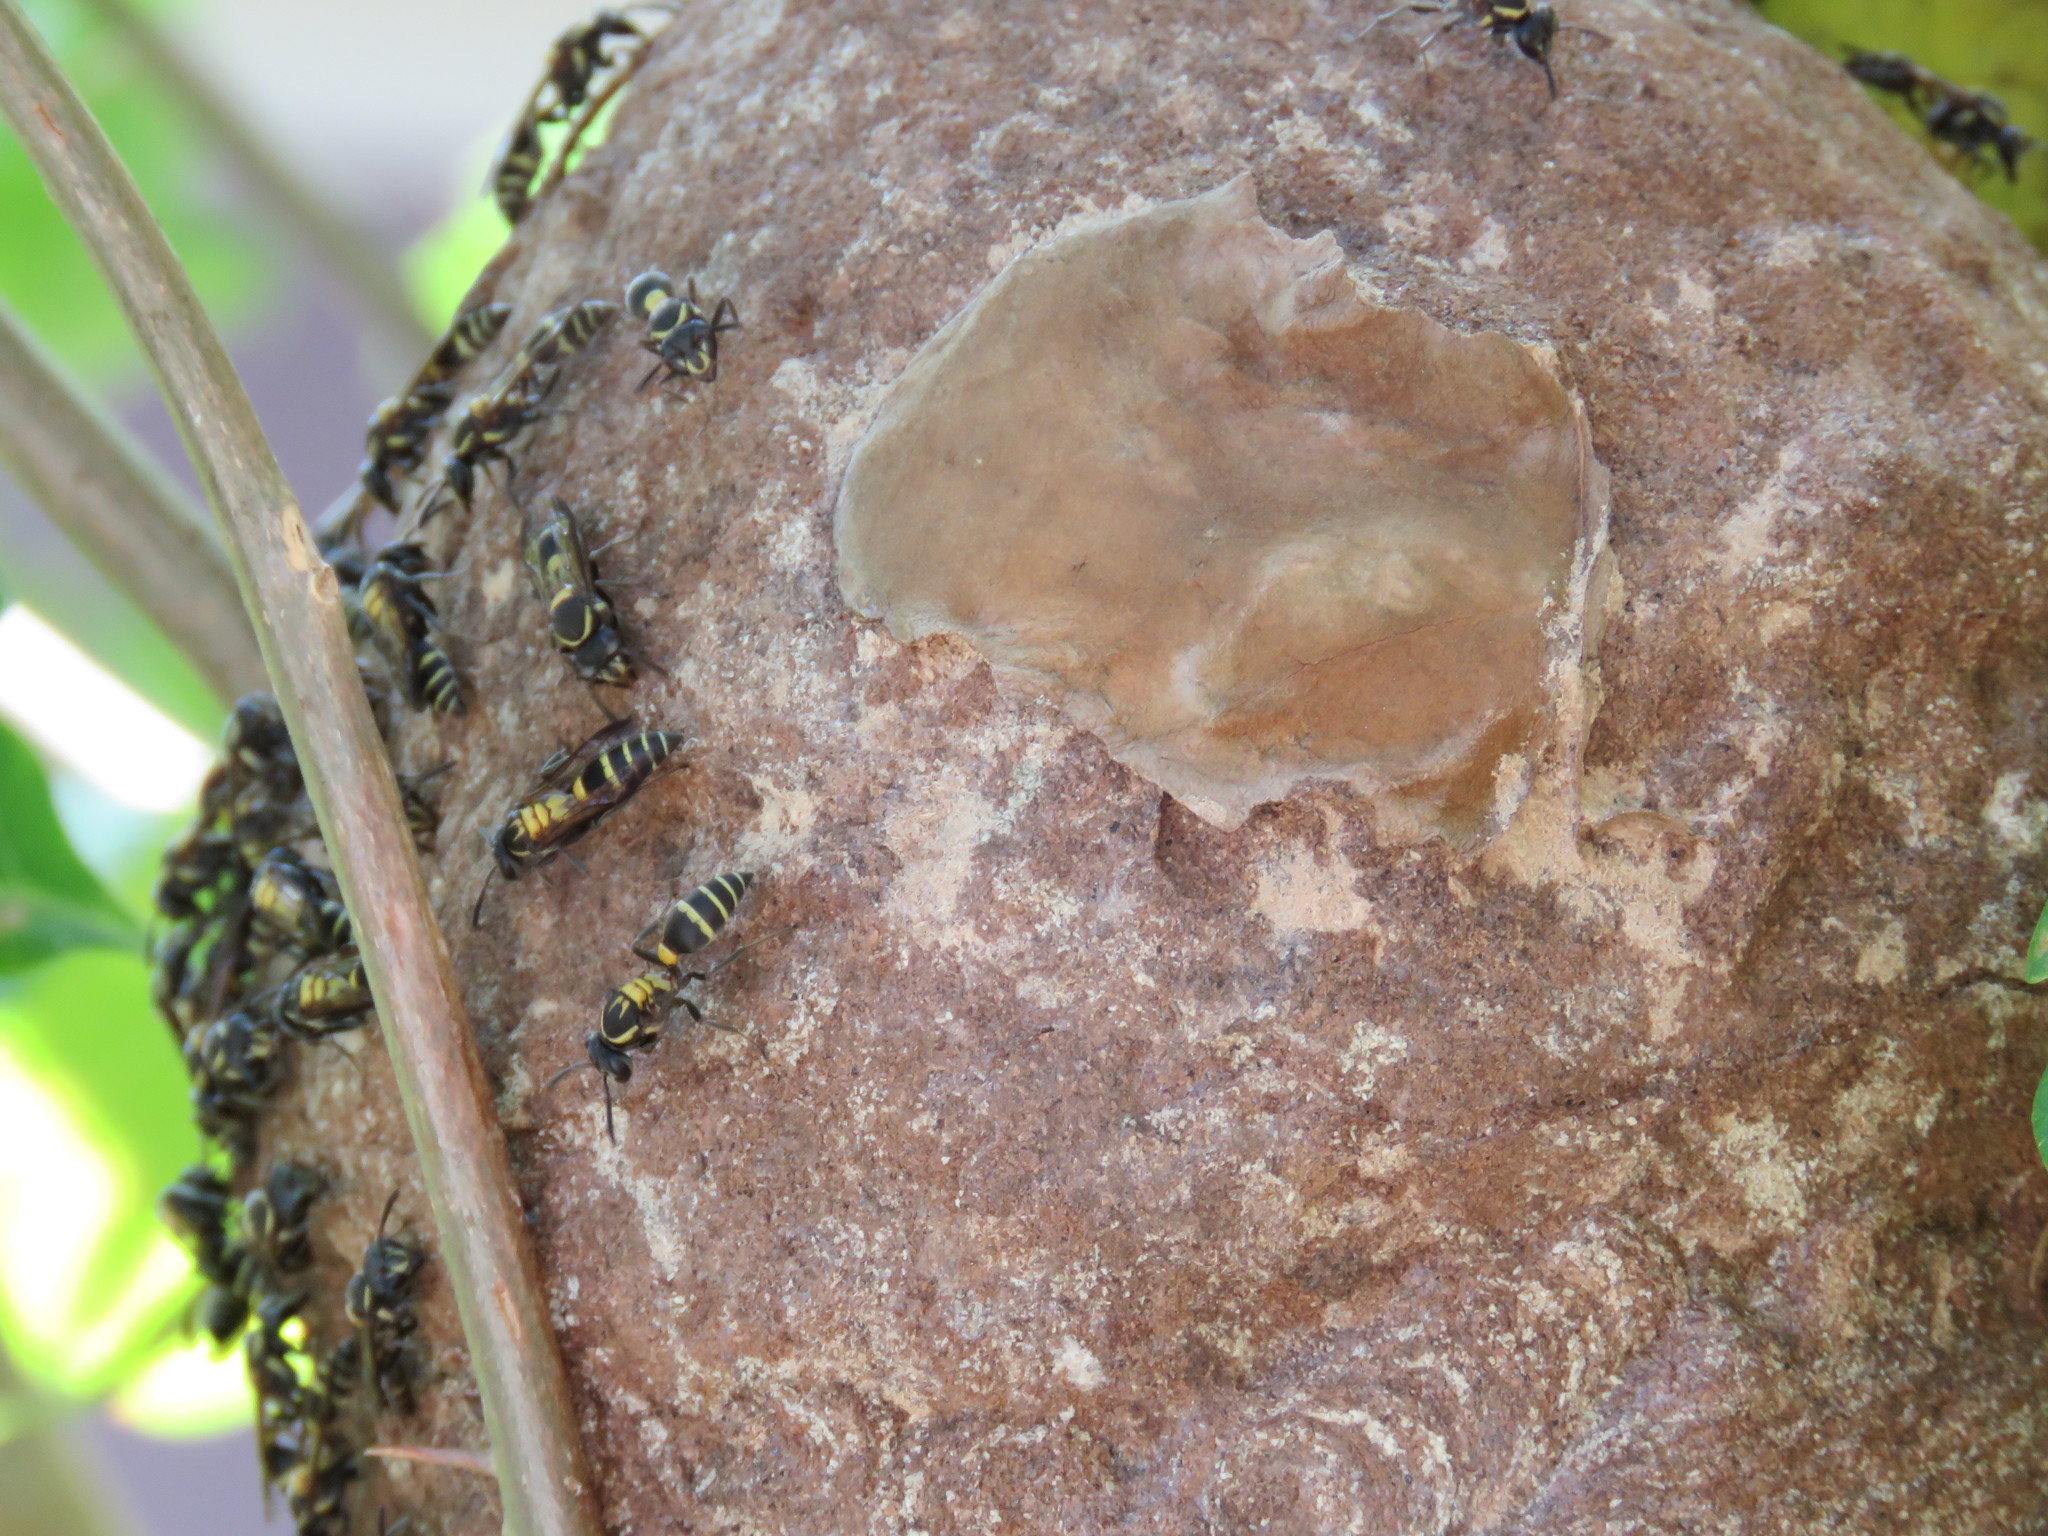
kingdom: Animalia
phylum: Arthropoda
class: Insecta
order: Hymenoptera
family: Eumenidae
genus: Polybia
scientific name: Polybia occidentalis
